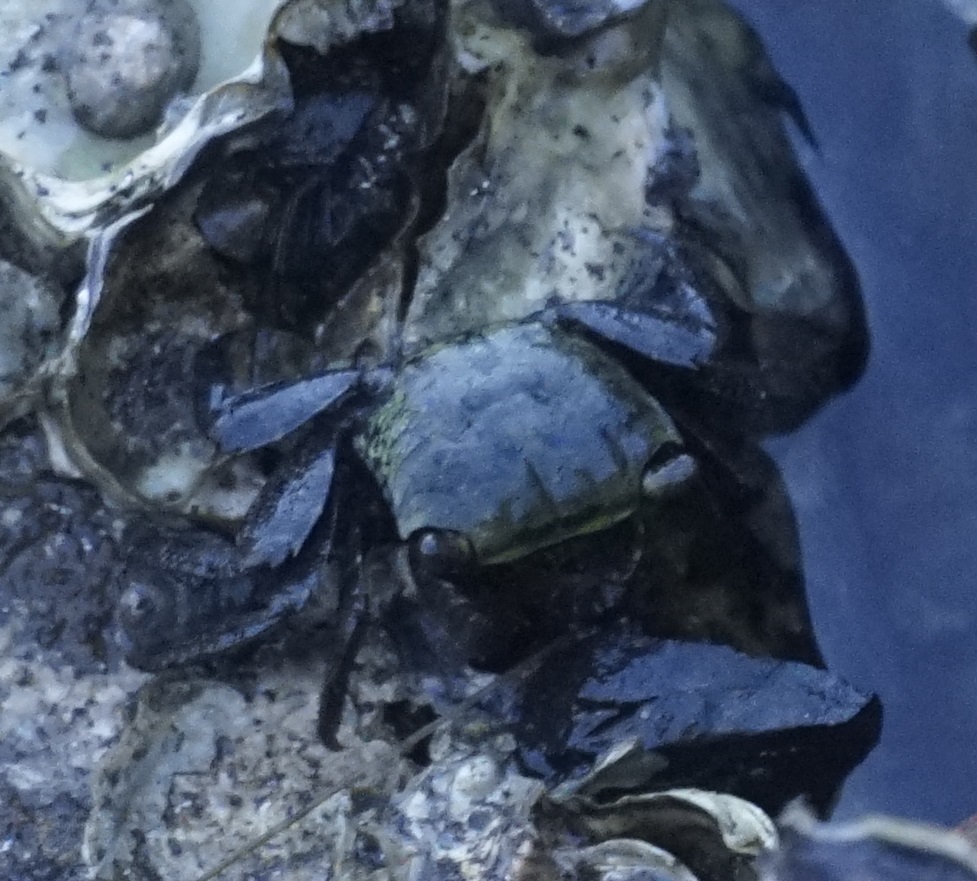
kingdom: Animalia
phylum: Arthropoda
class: Malacostraca
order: Decapoda
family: Sesarmidae
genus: Parasesarma
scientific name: Parasesarma erythodactylum
